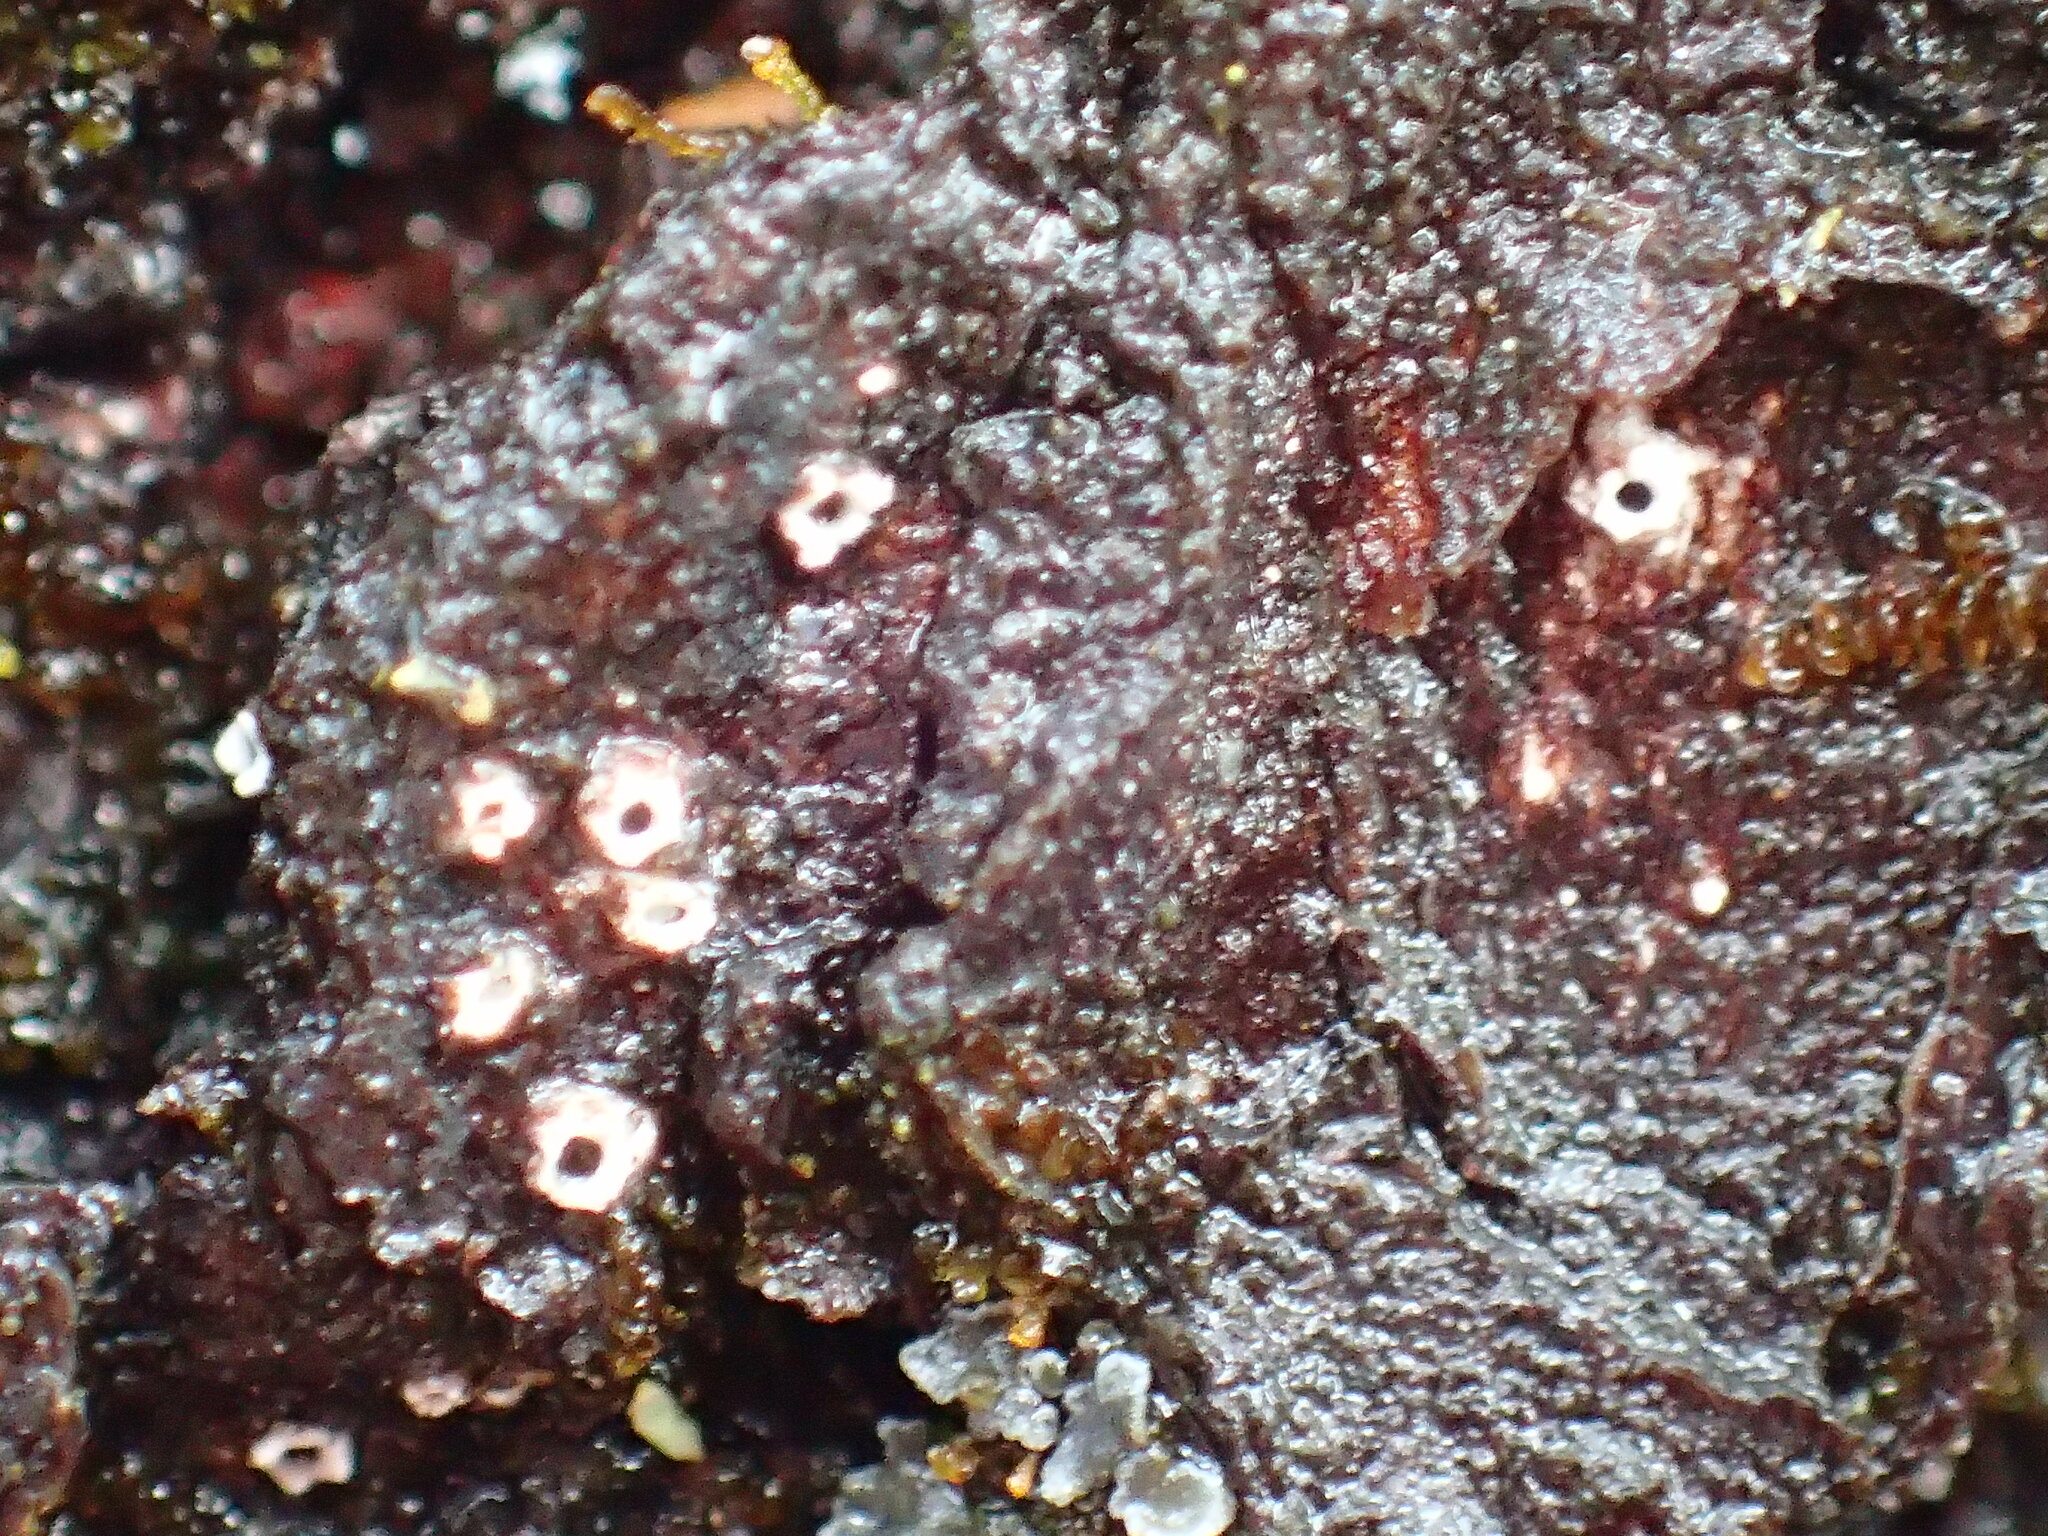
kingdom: Fungi
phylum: Ascomycota
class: Lecanoromycetes
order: Ostropales
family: Stictidaceae
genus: Stictis
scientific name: Stictis radiata
